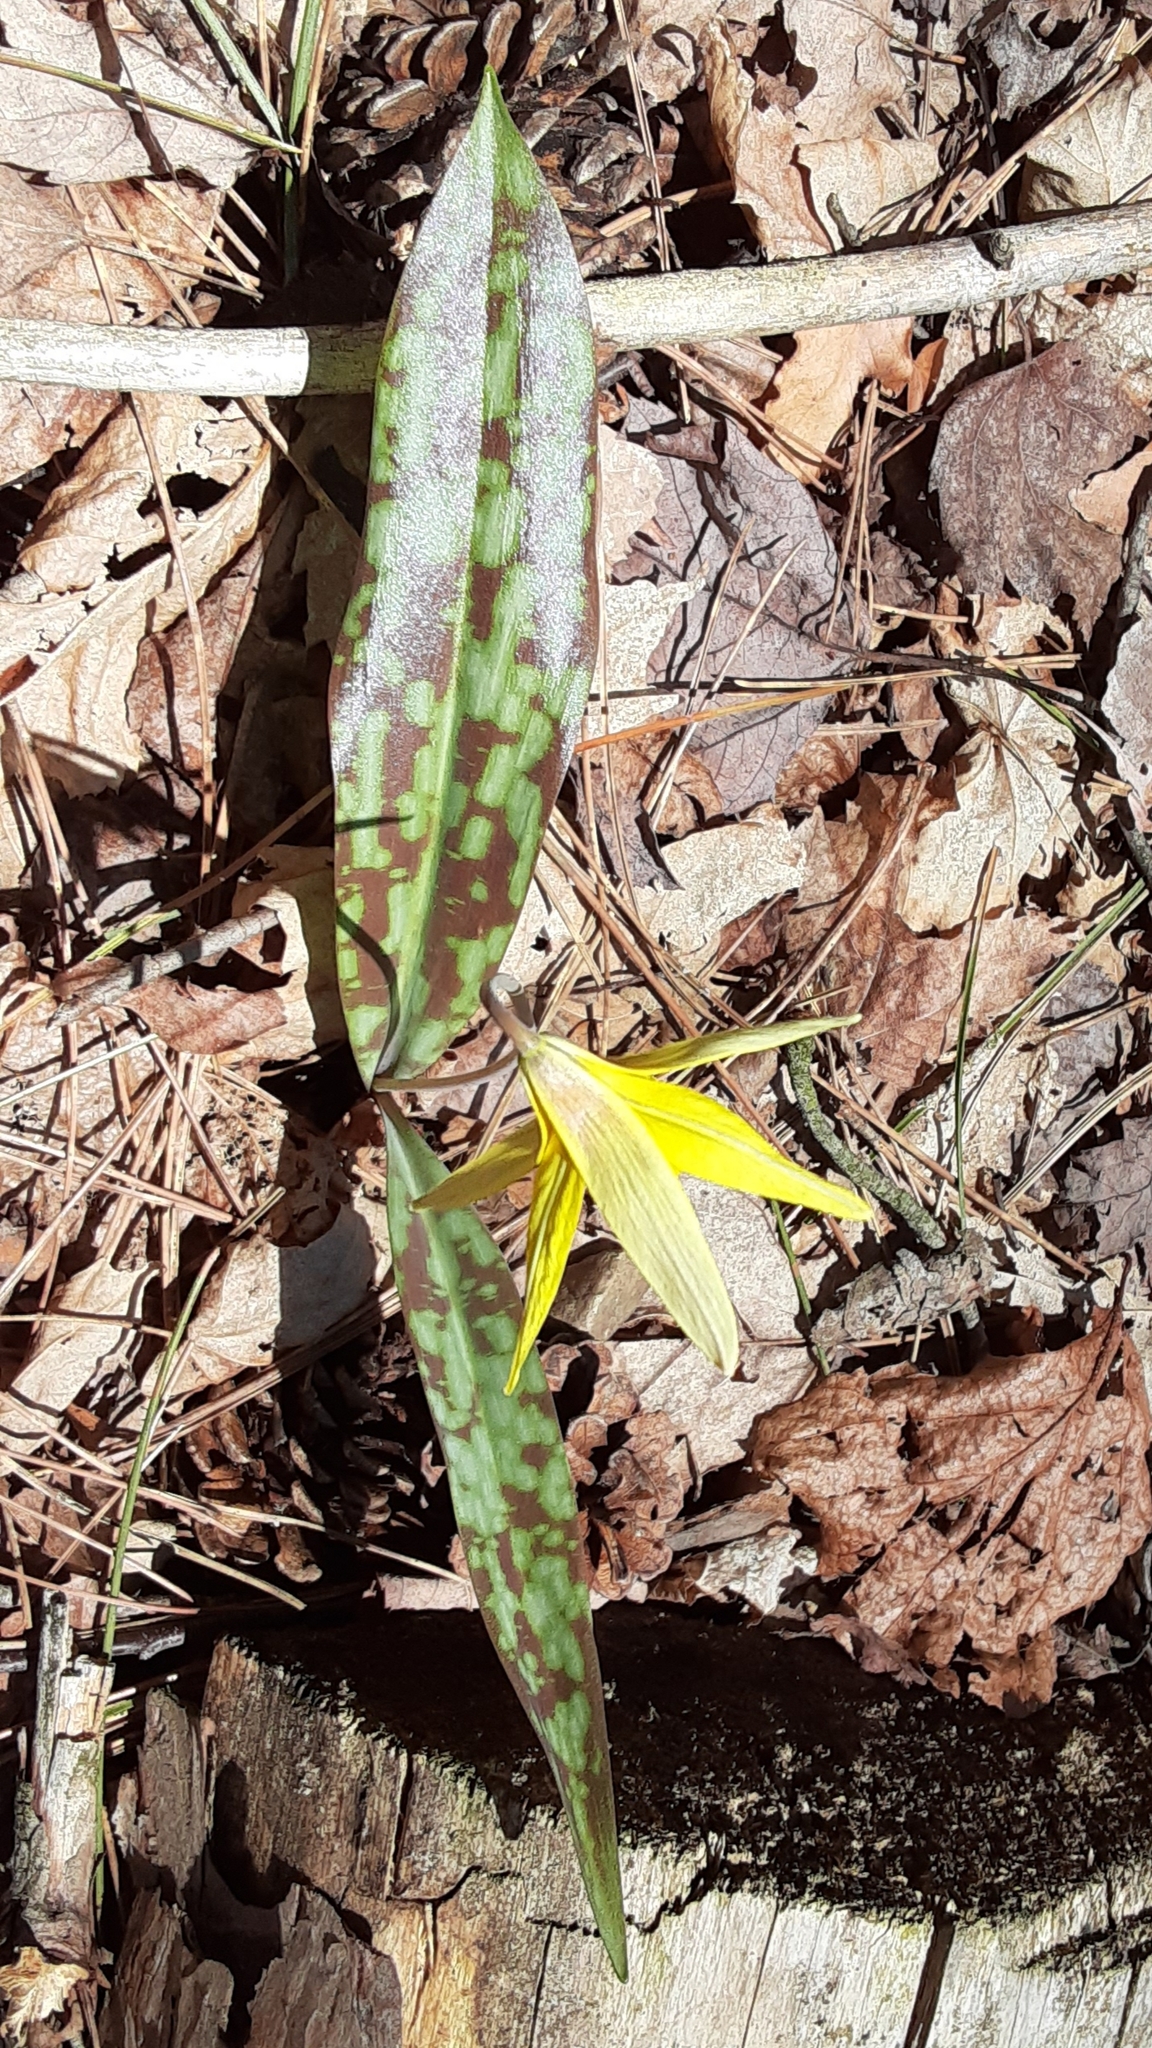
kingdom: Plantae
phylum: Tracheophyta
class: Liliopsida
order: Liliales
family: Liliaceae
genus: Erythronium
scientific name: Erythronium americanum
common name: Yellow adder's-tongue
